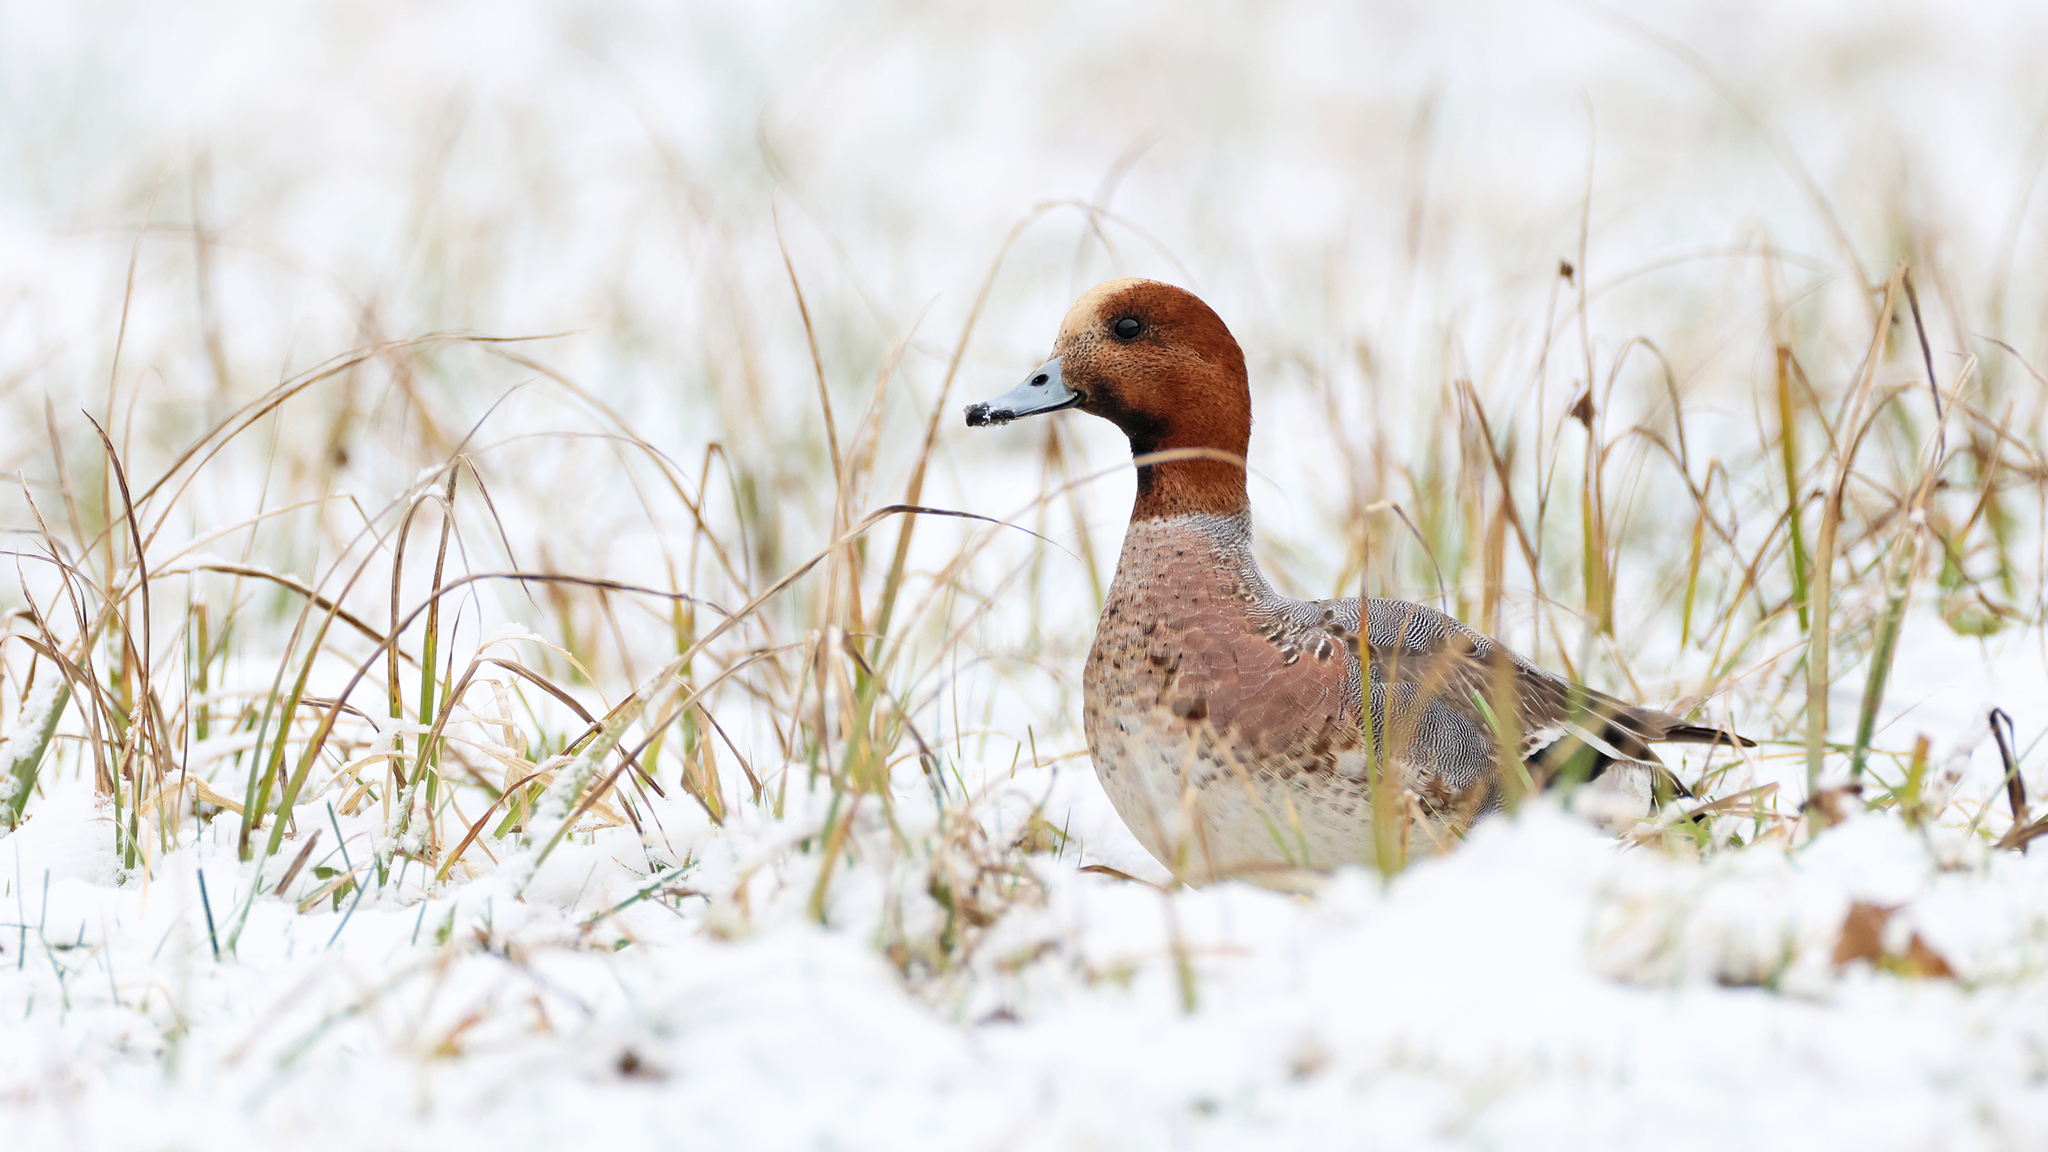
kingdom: Animalia
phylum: Chordata
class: Aves
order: Anseriformes
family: Anatidae
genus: Mareca
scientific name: Mareca penelope
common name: Eurasian wigeon
